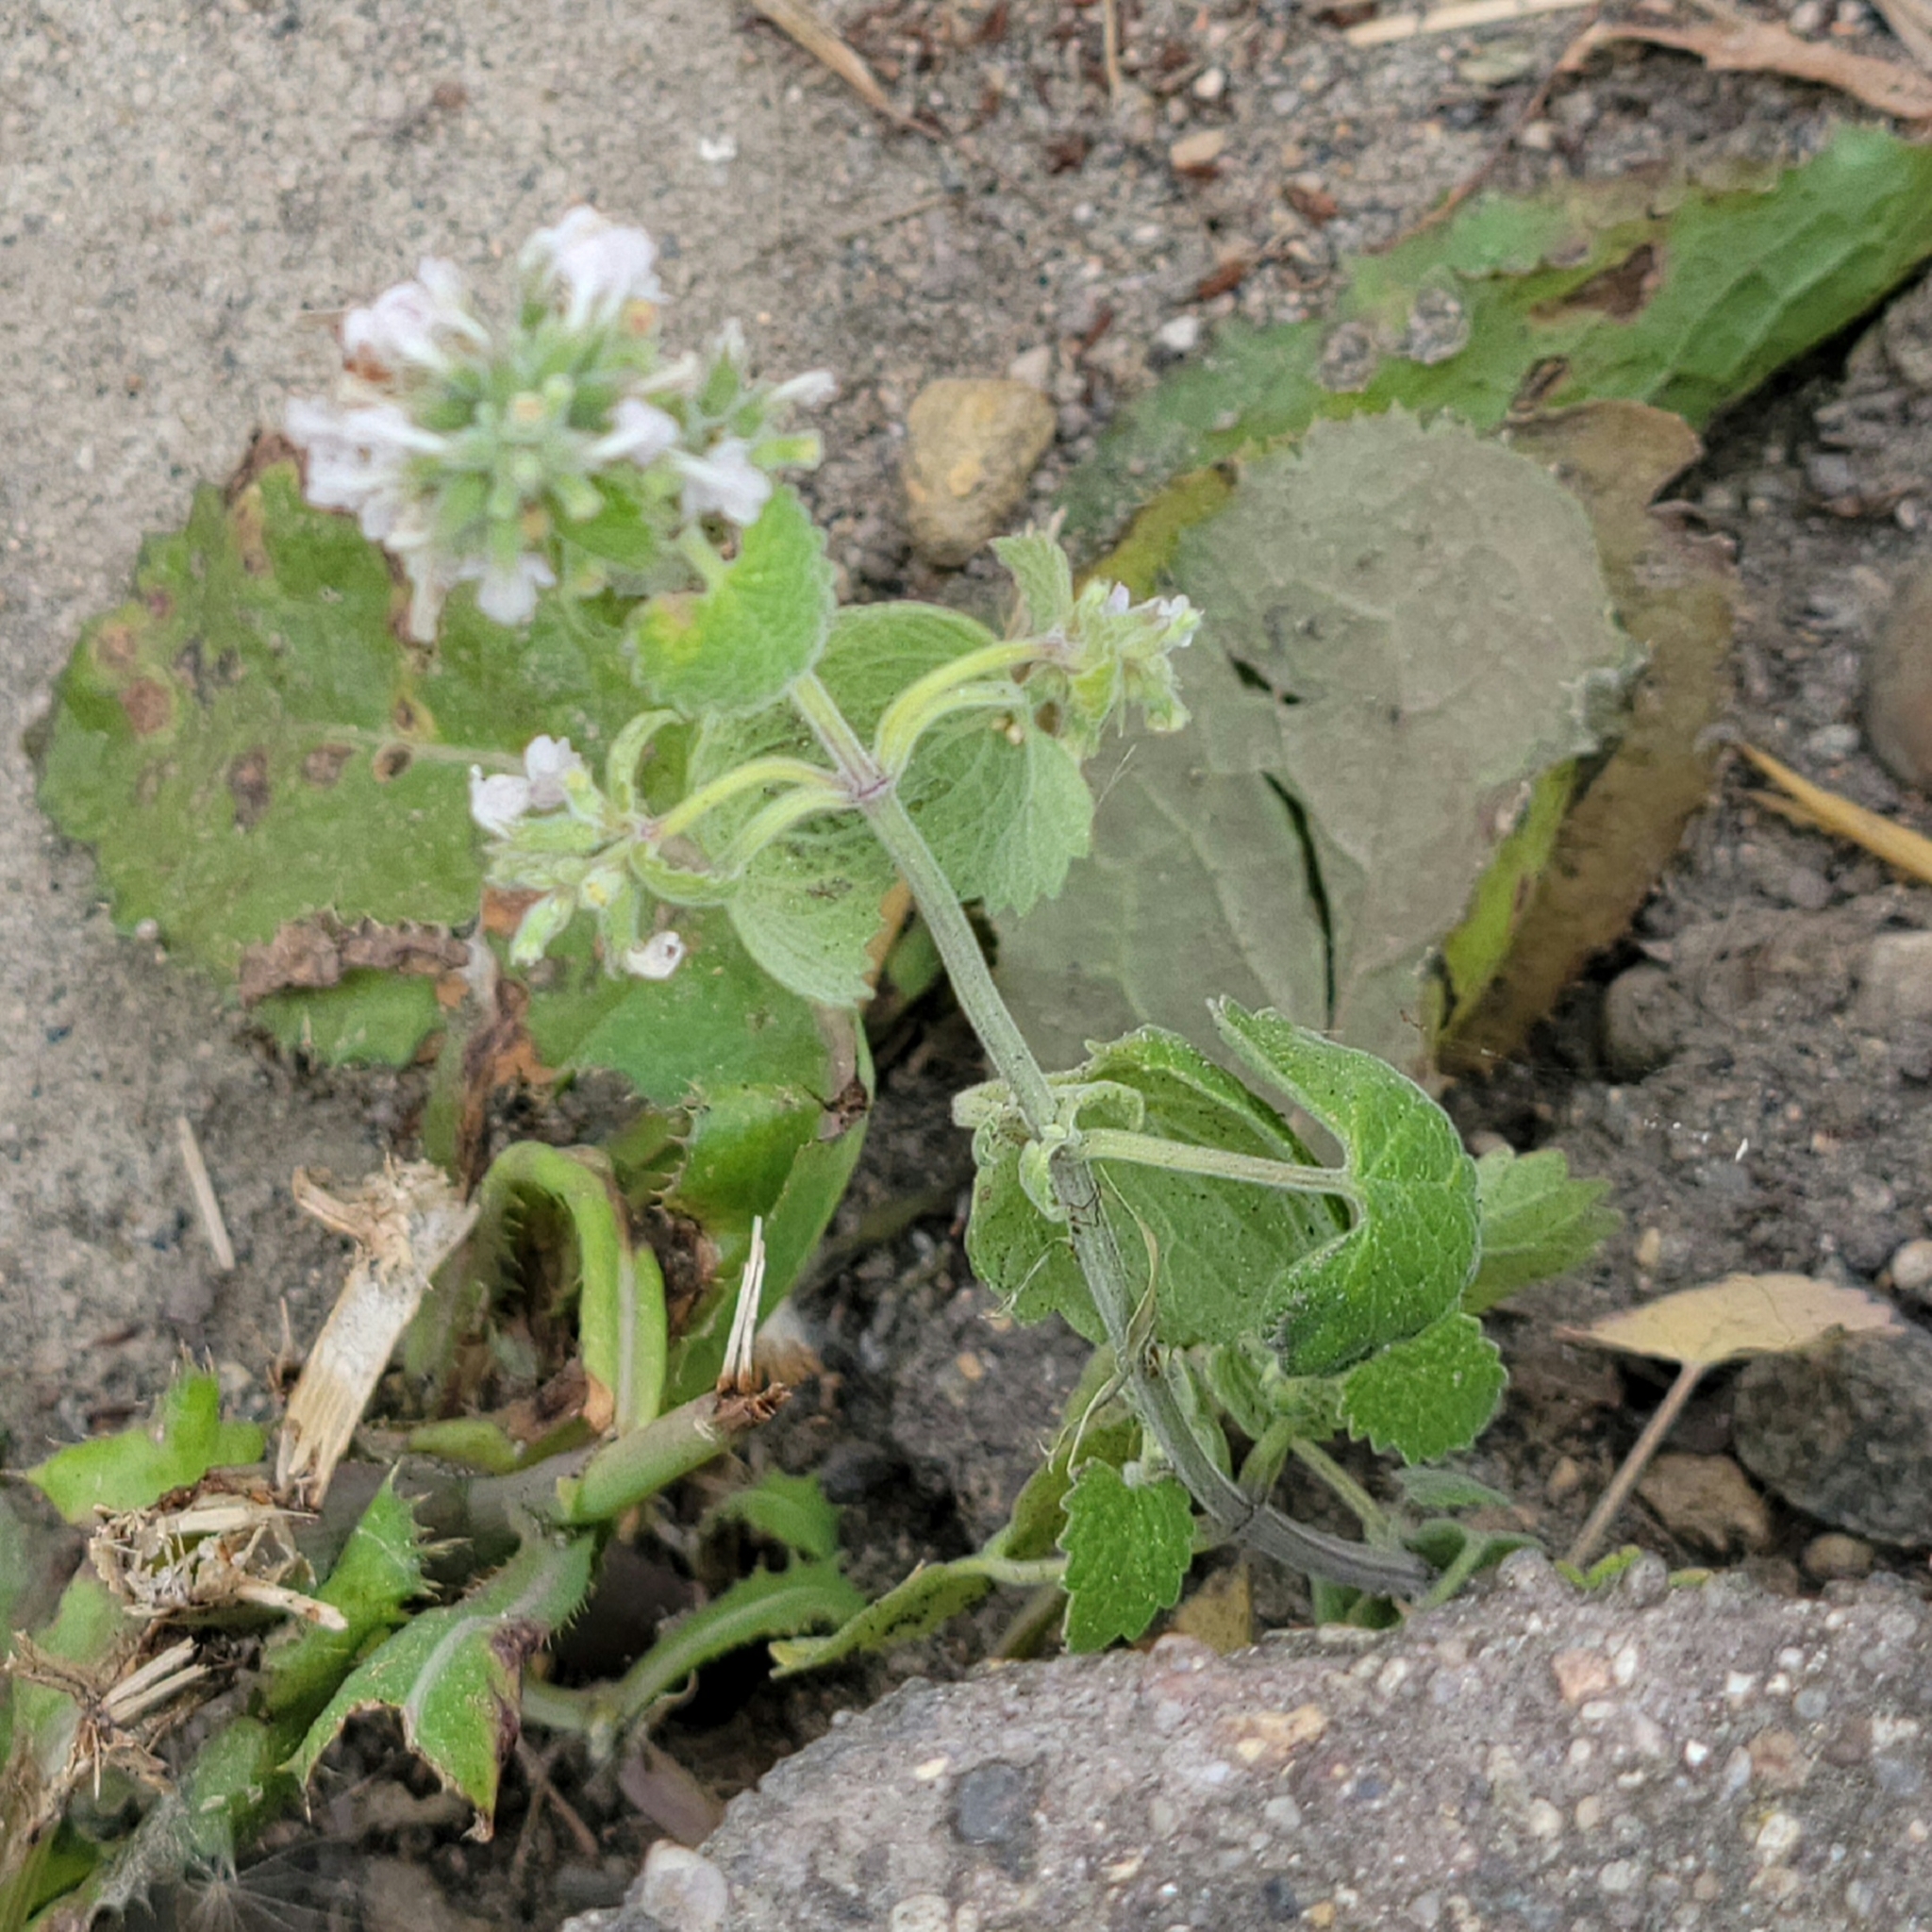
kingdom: Plantae
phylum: Tracheophyta
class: Magnoliopsida
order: Lamiales
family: Lamiaceae
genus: Nepeta
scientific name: Nepeta cataria
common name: Catnip
